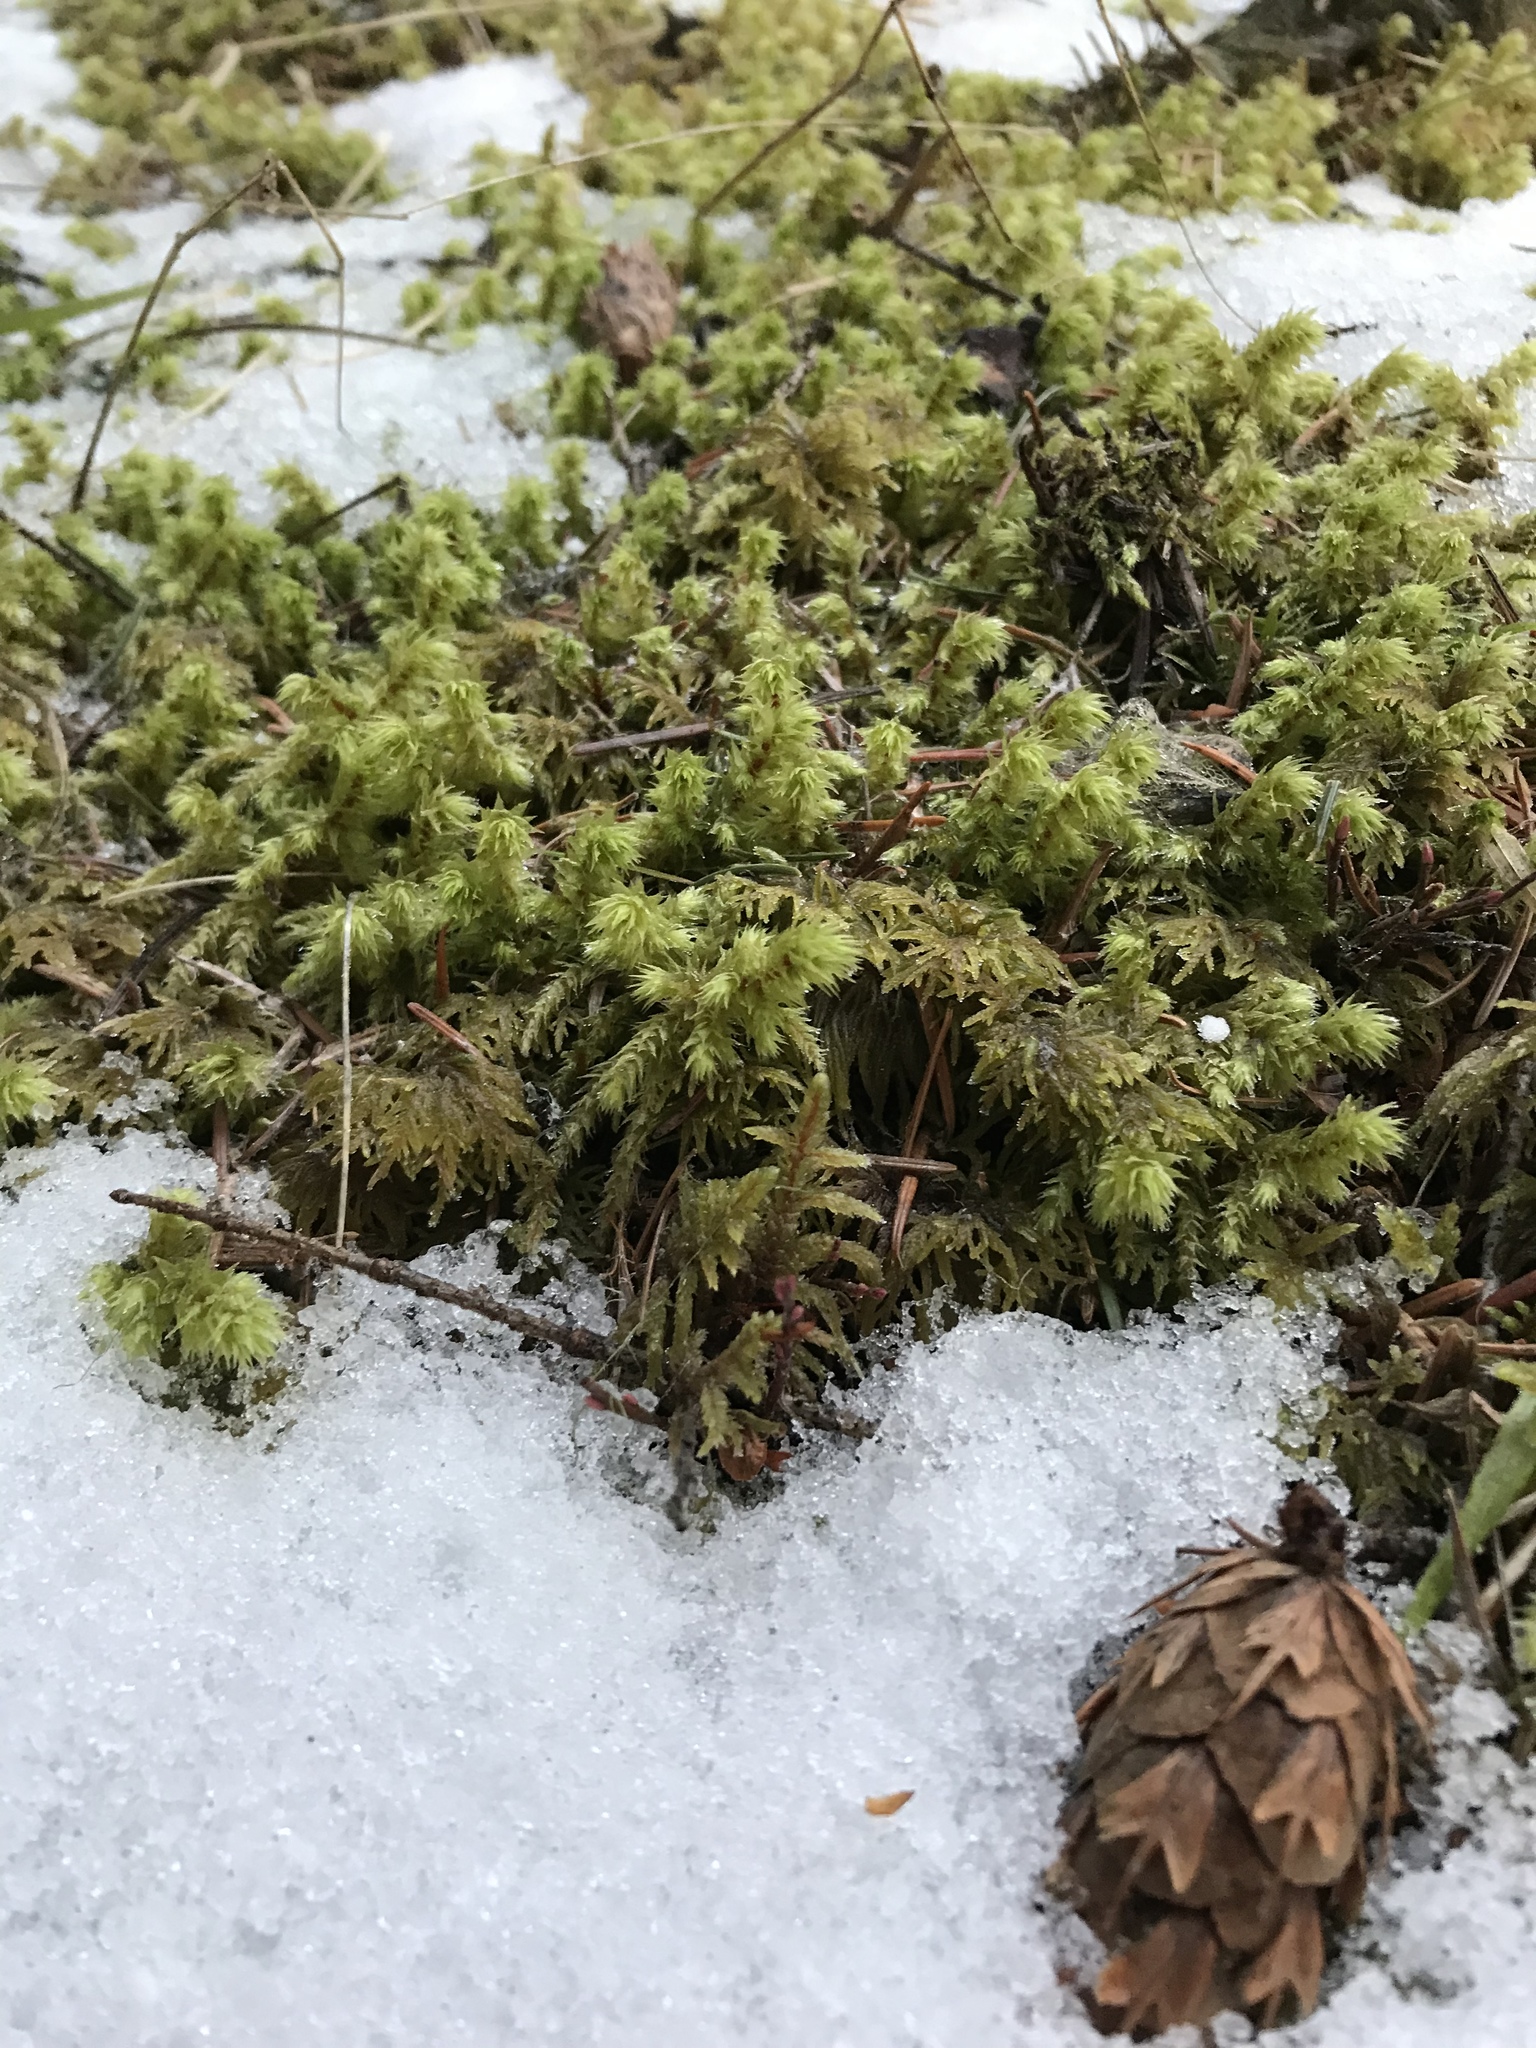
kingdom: Plantae
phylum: Bryophyta
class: Bryopsida
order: Hypnales
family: Hylocomiaceae
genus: Hylocomiadelphus
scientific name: Hylocomiadelphus triquetrus
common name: Rough goose neck moss
